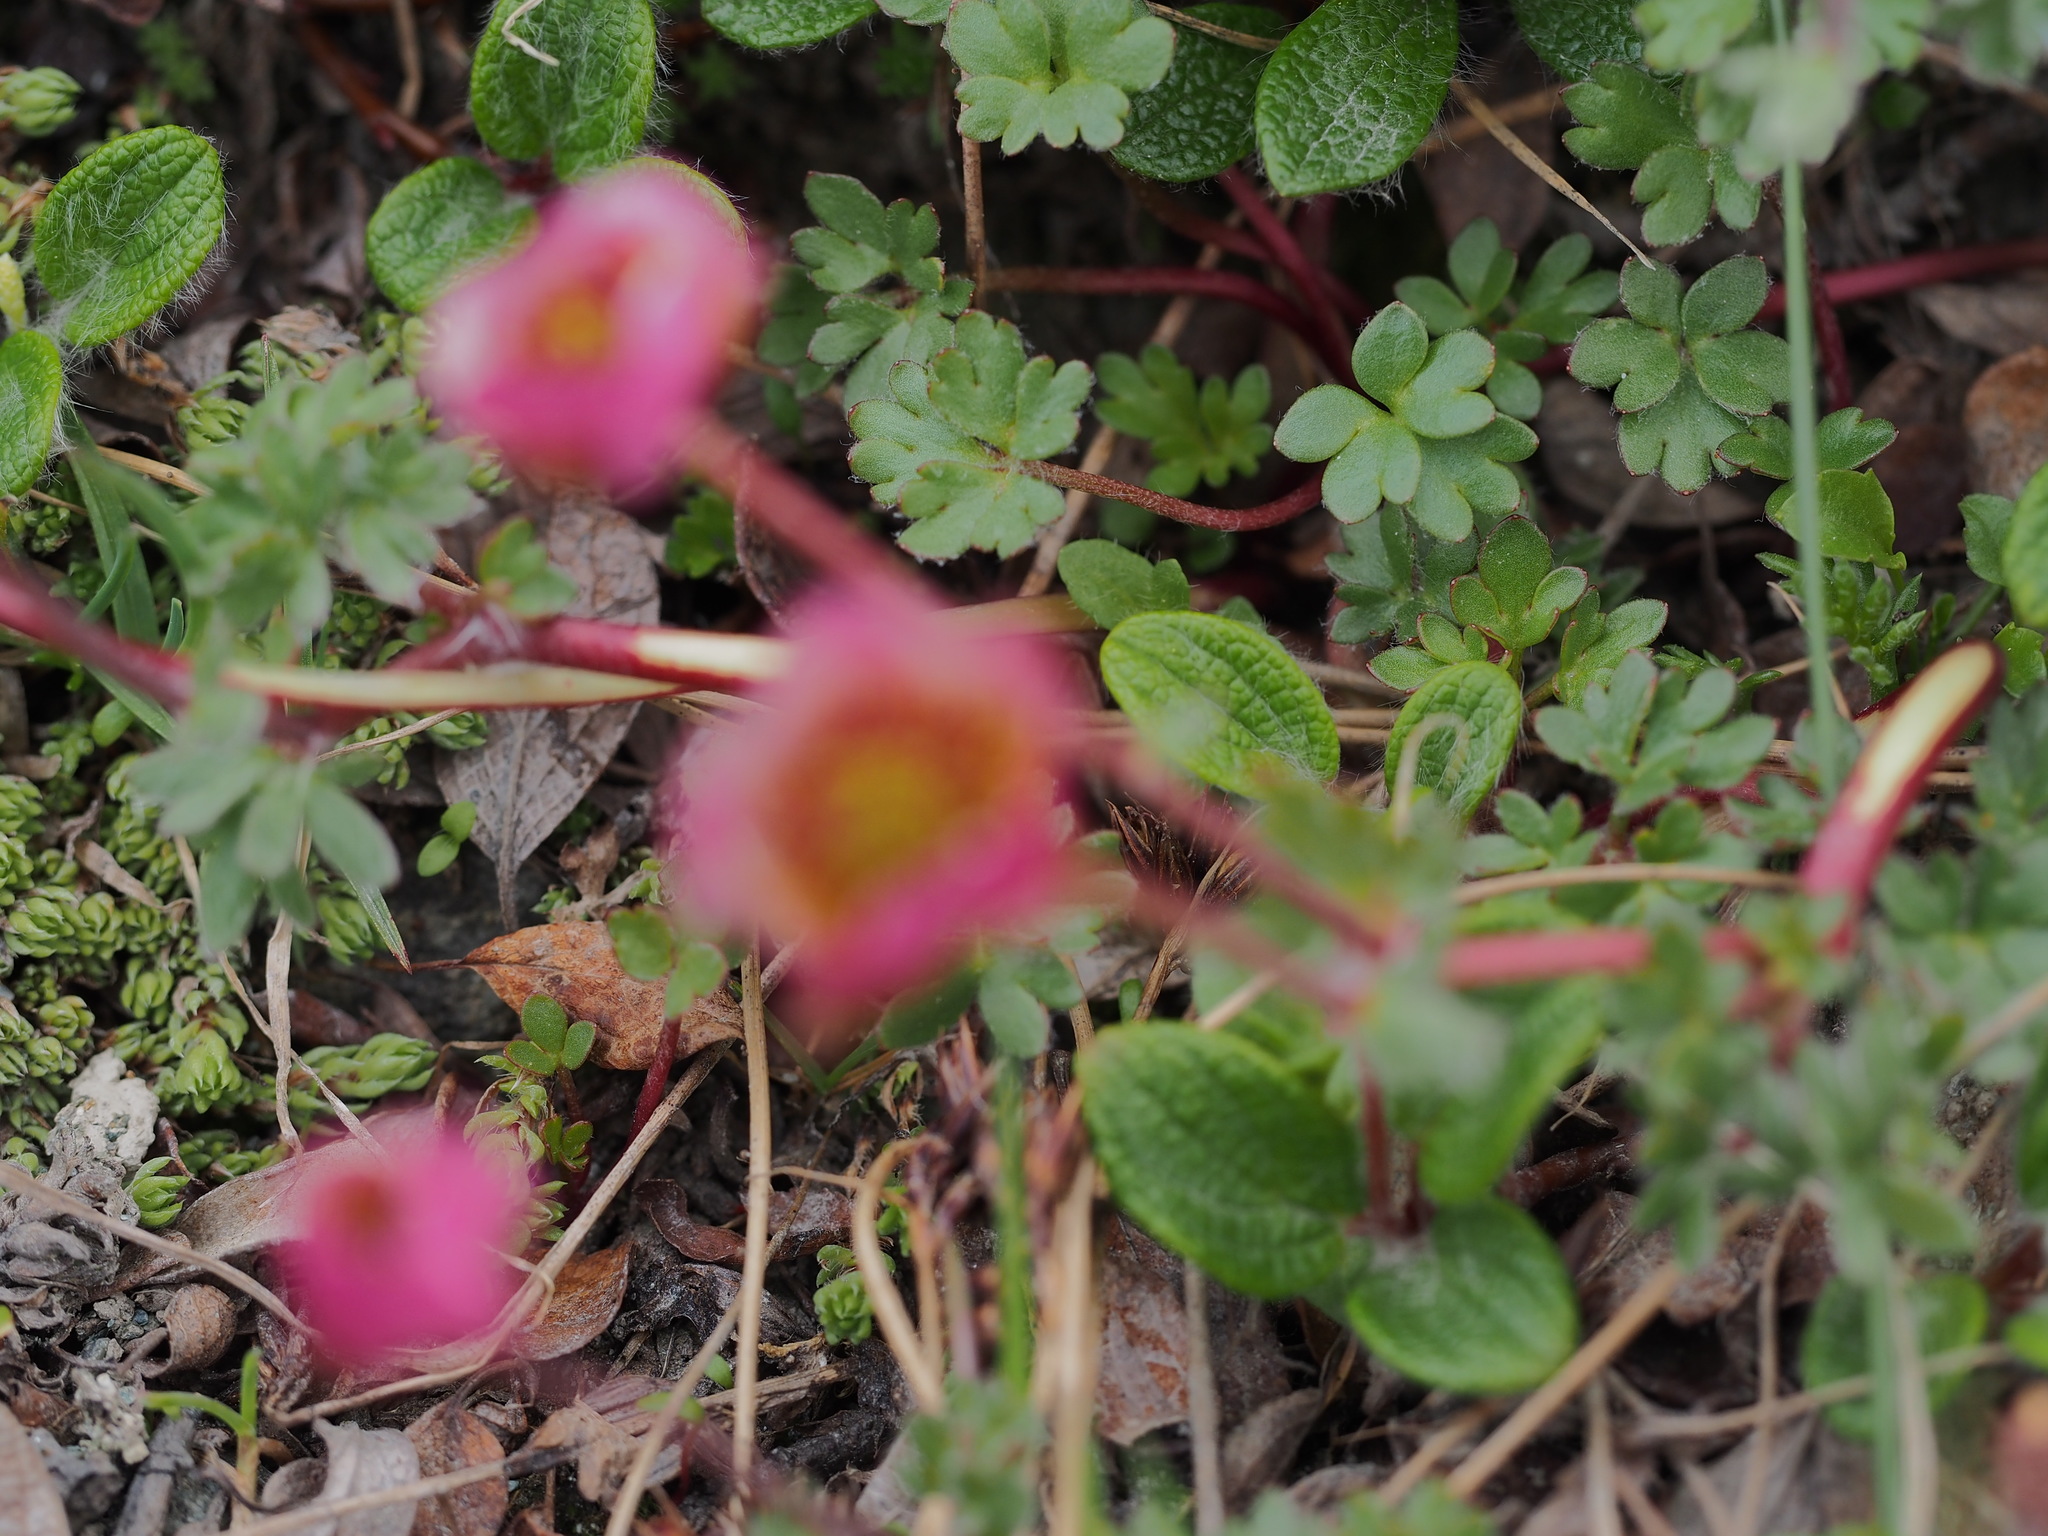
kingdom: Plantae
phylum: Tracheophyta
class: Magnoliopsida
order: Ranunculales
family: Ranunculaceae
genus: Ranunculus
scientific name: Ranunculus glacialis
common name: Glacier buttercup
